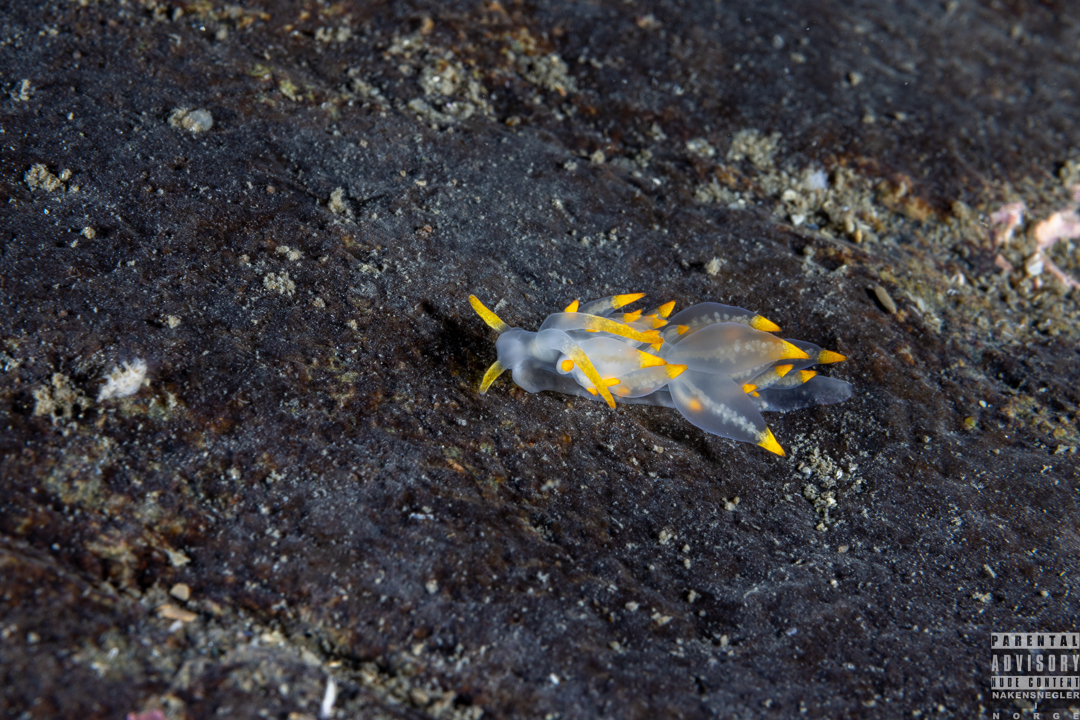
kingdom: Animalia
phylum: Mollusca
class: Gastropoda
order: Nudibranchia
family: Eubranchidae
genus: Amphorina
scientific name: Amphorina farrani
